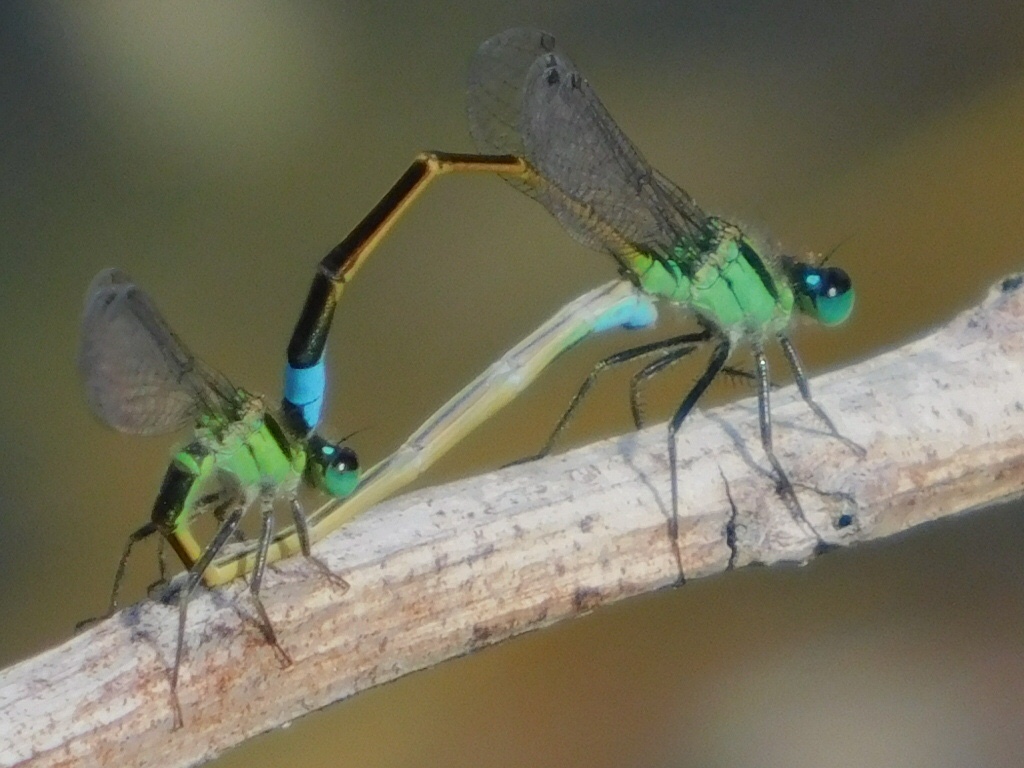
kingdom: Animalia
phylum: Arthropoda
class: Insecta
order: Odonata
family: Coenagrionidae
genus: Ischnura
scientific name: Ischnura ramburii
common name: Rambur's forktail
